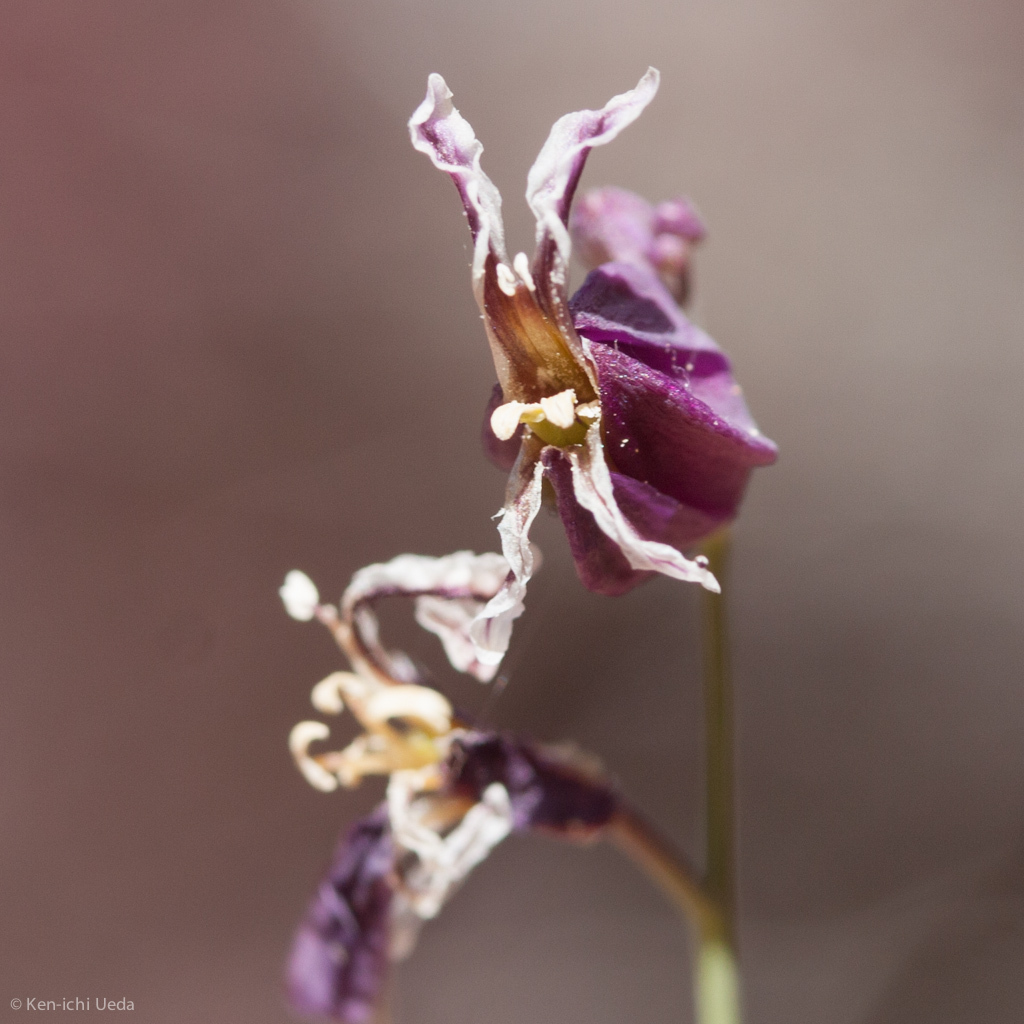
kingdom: Plantae
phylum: Tracheophyta
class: Magnoliopsida
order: Brassicales
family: Brassicaceae
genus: Streptanthus
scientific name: Streptanthus glandulosus
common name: Jewel-flower
